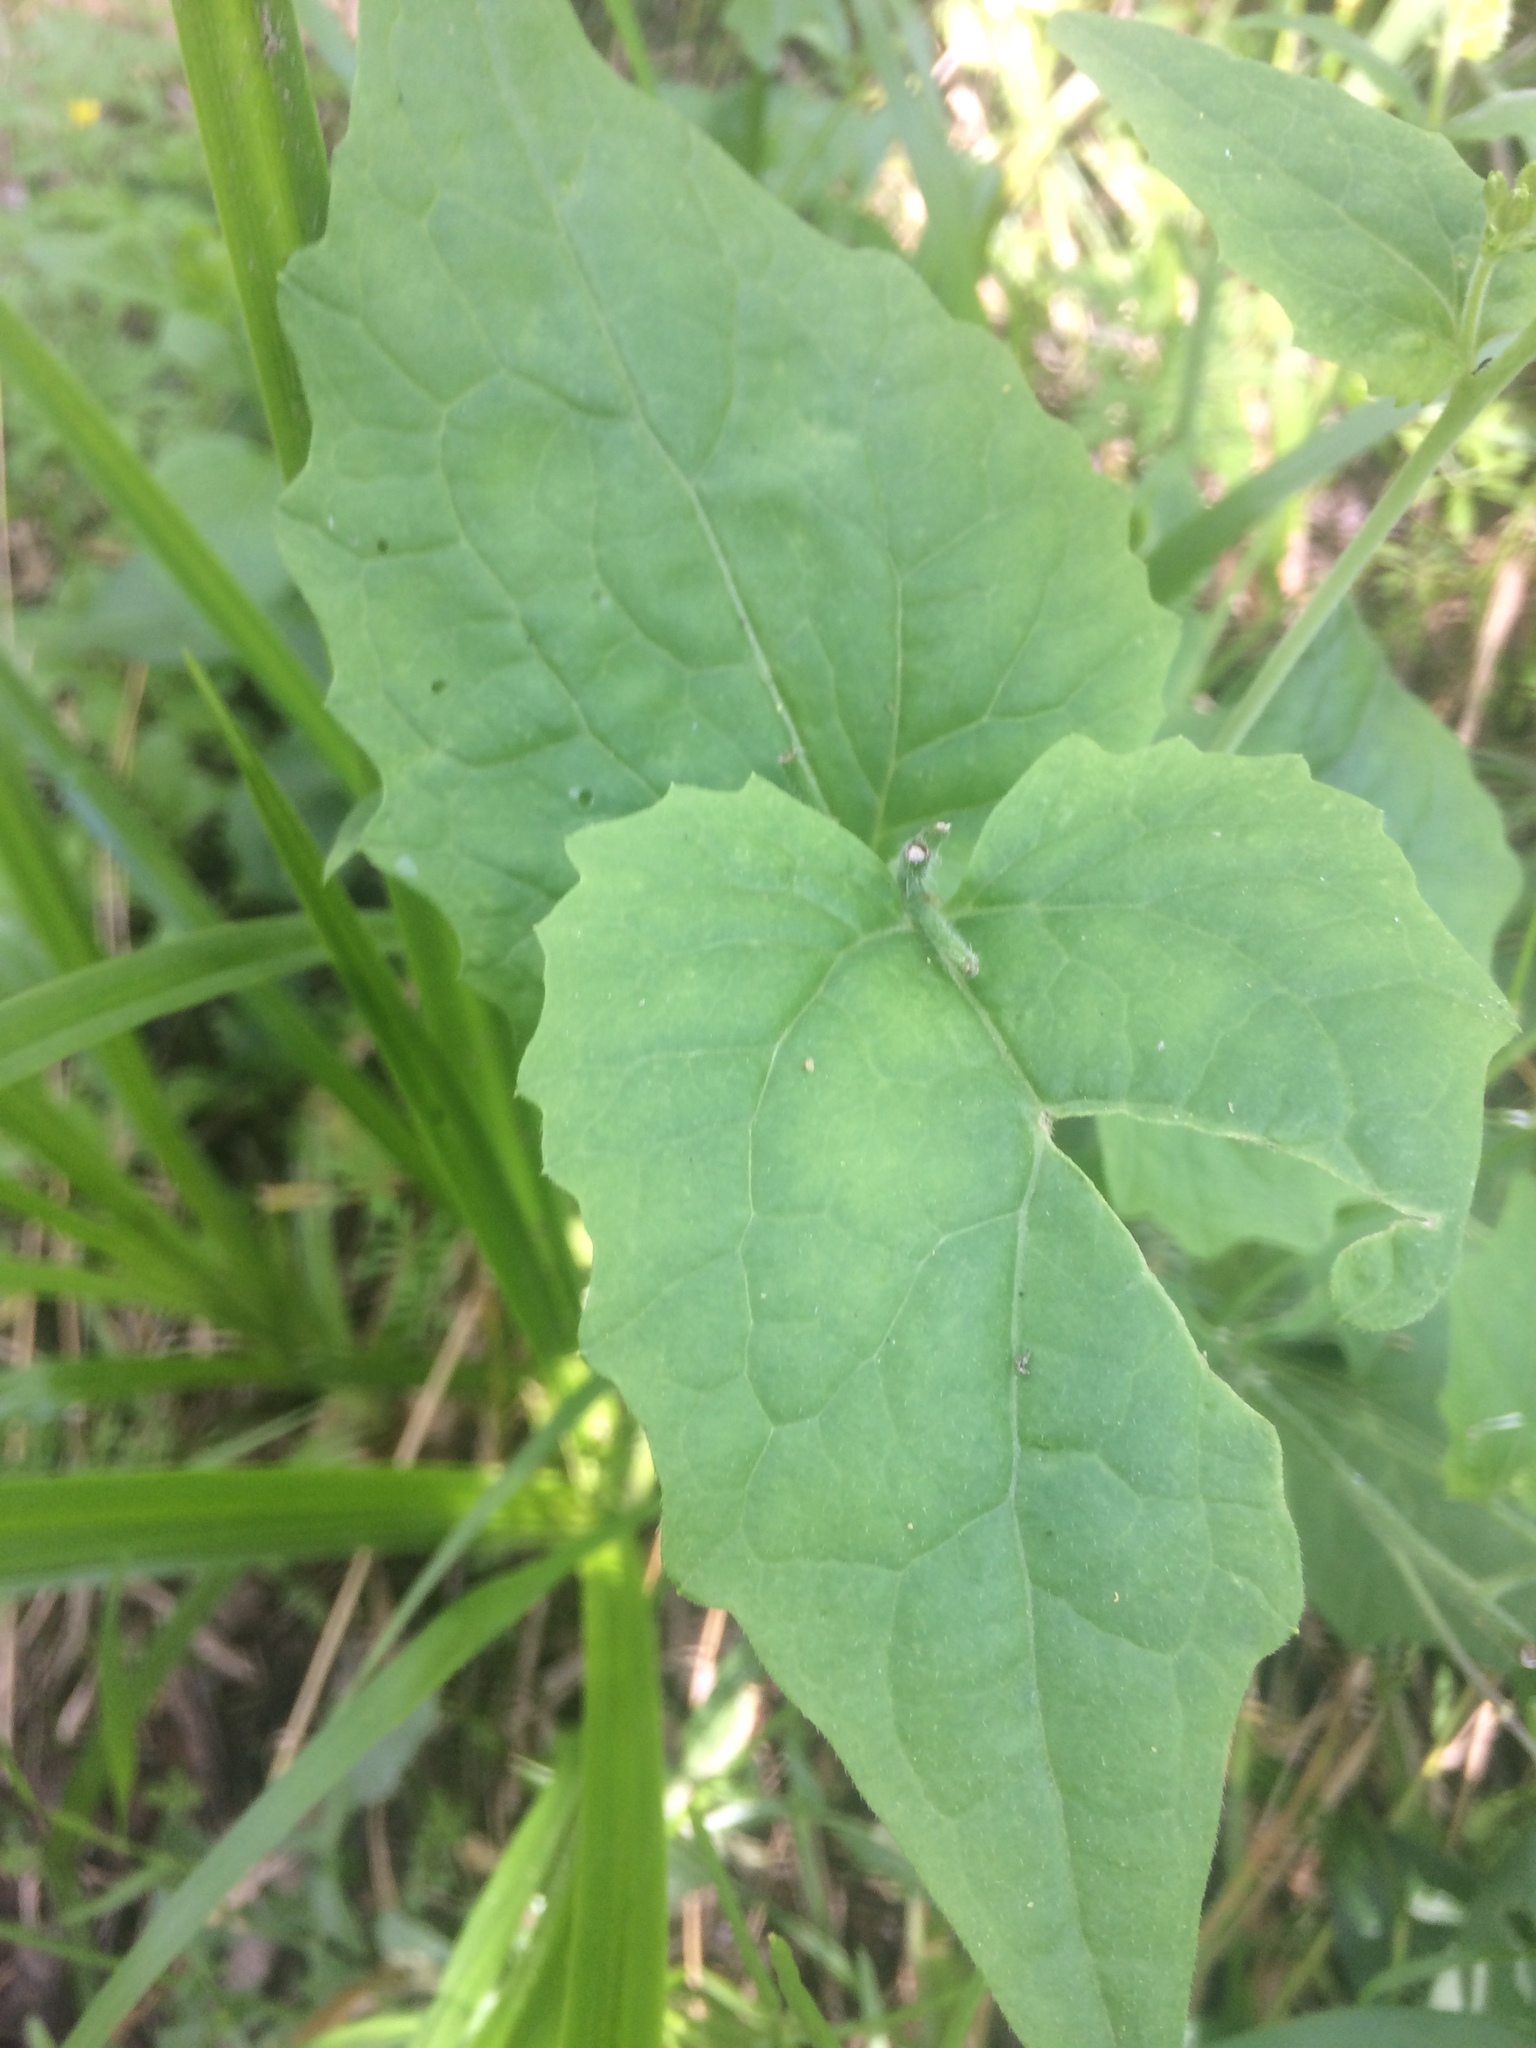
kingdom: Plantae
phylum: Tracheophyta
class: Magnoliopsida
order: Brassicales
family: Brassicaceae
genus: Lunaria
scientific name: Lunaria annua
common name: Honesty
